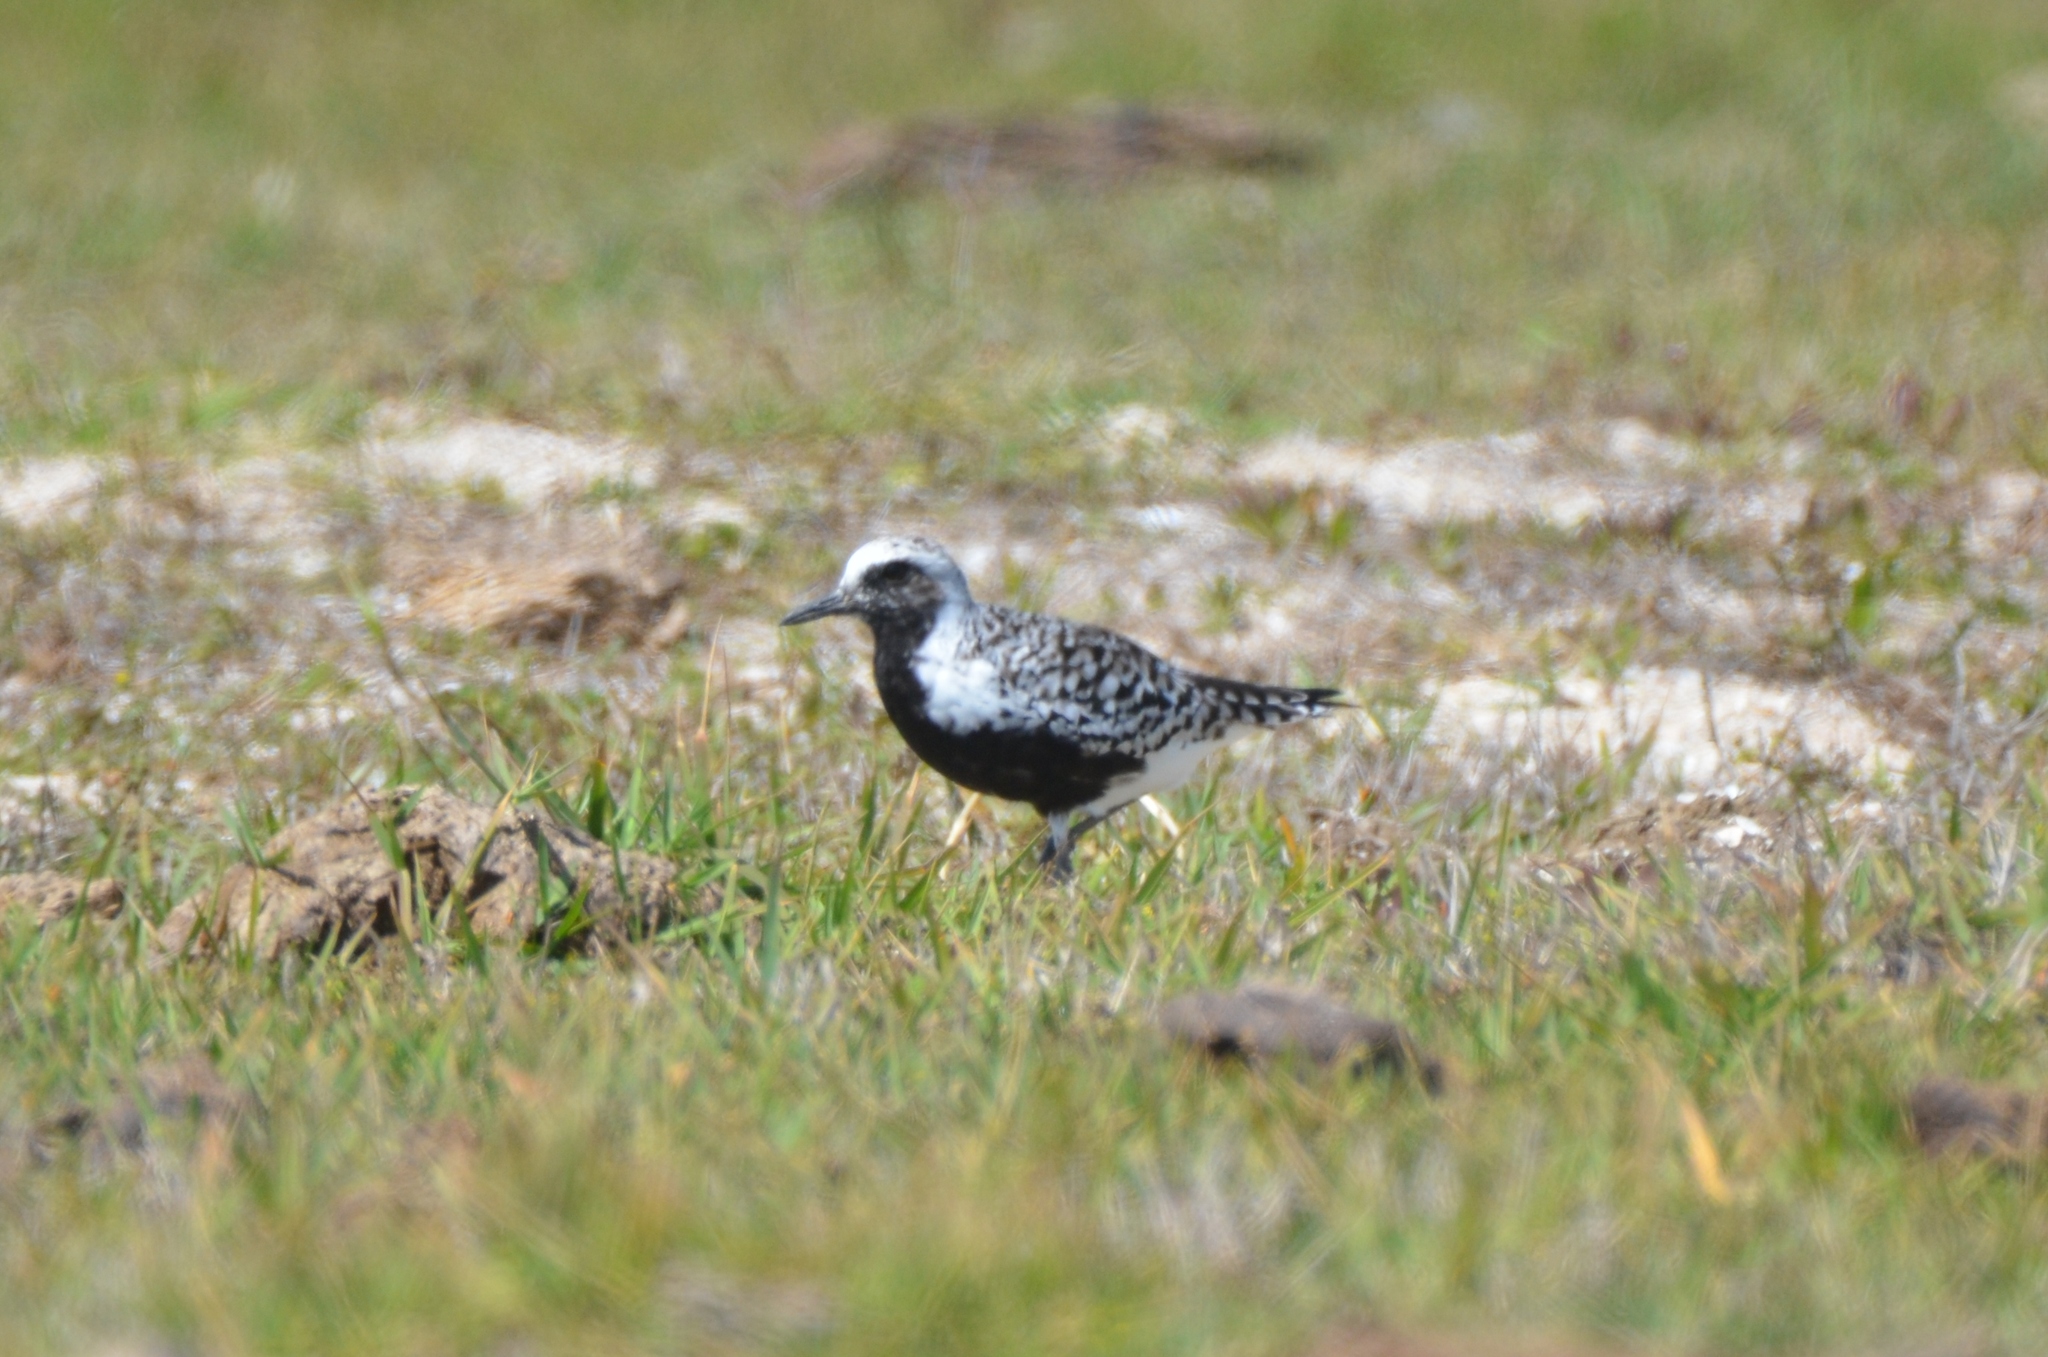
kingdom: Animalia
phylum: Chordata
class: Aves
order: Charadriiformes
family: Charadriidae
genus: Pluvialis
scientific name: Pluvialis squatarola
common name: Grey plover
